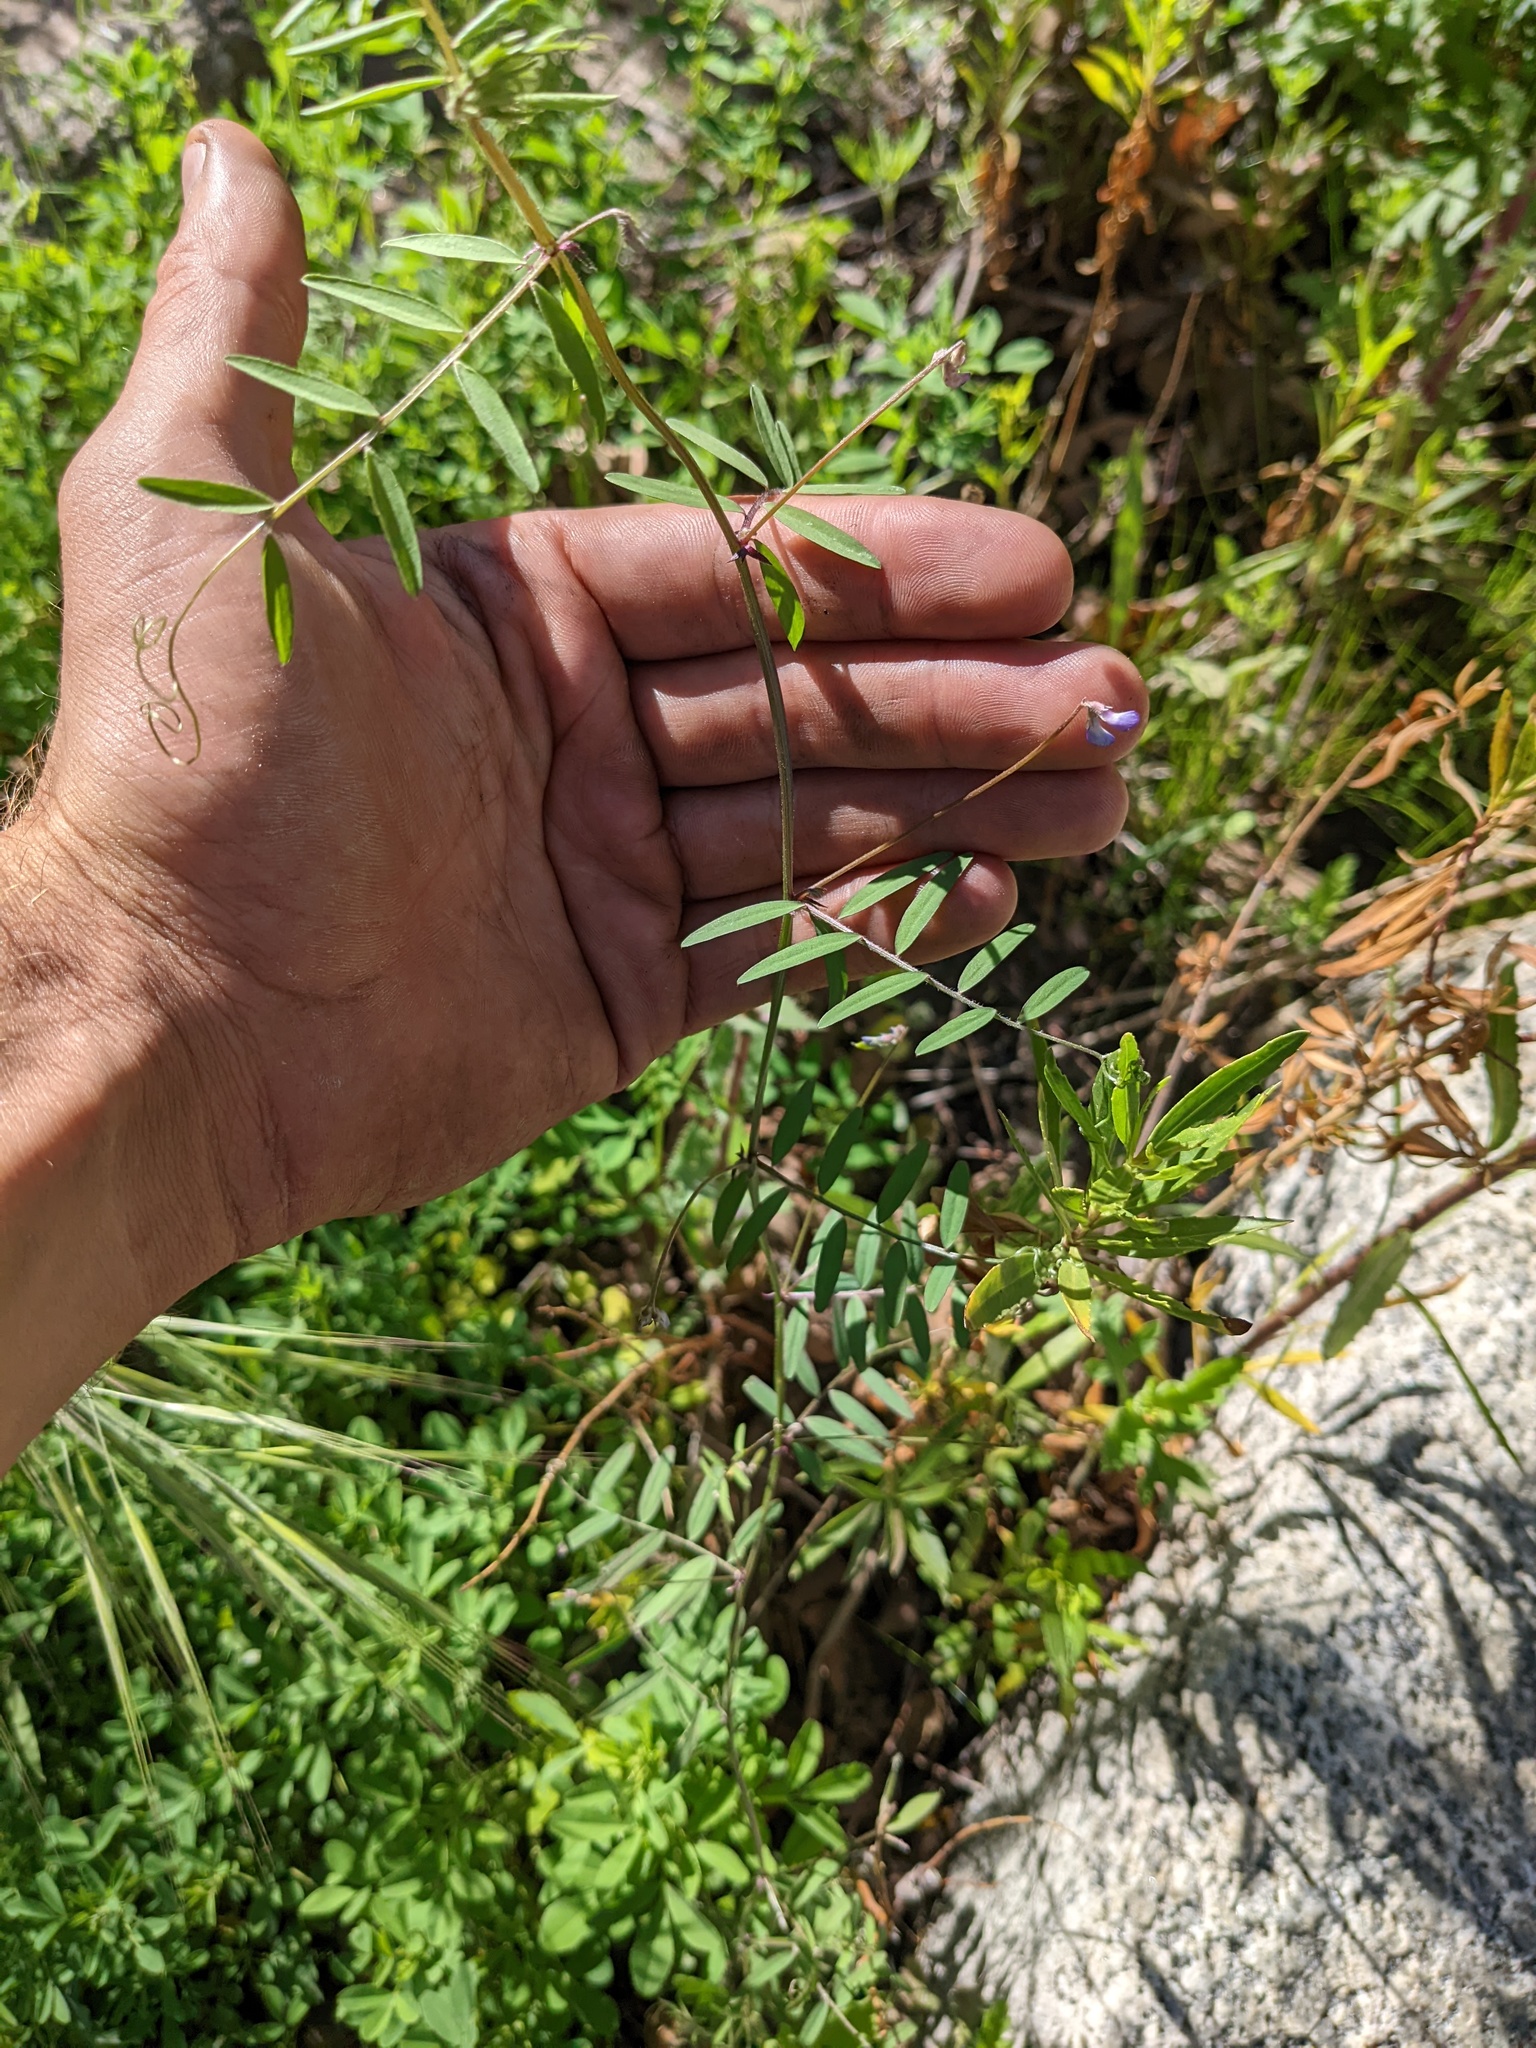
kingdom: Plantae
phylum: Tracheophyta
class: Magnoliopsida
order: Fabales
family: Fabaceae
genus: Vicia
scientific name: Vicia ludoviciana
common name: Louisiana vetch
